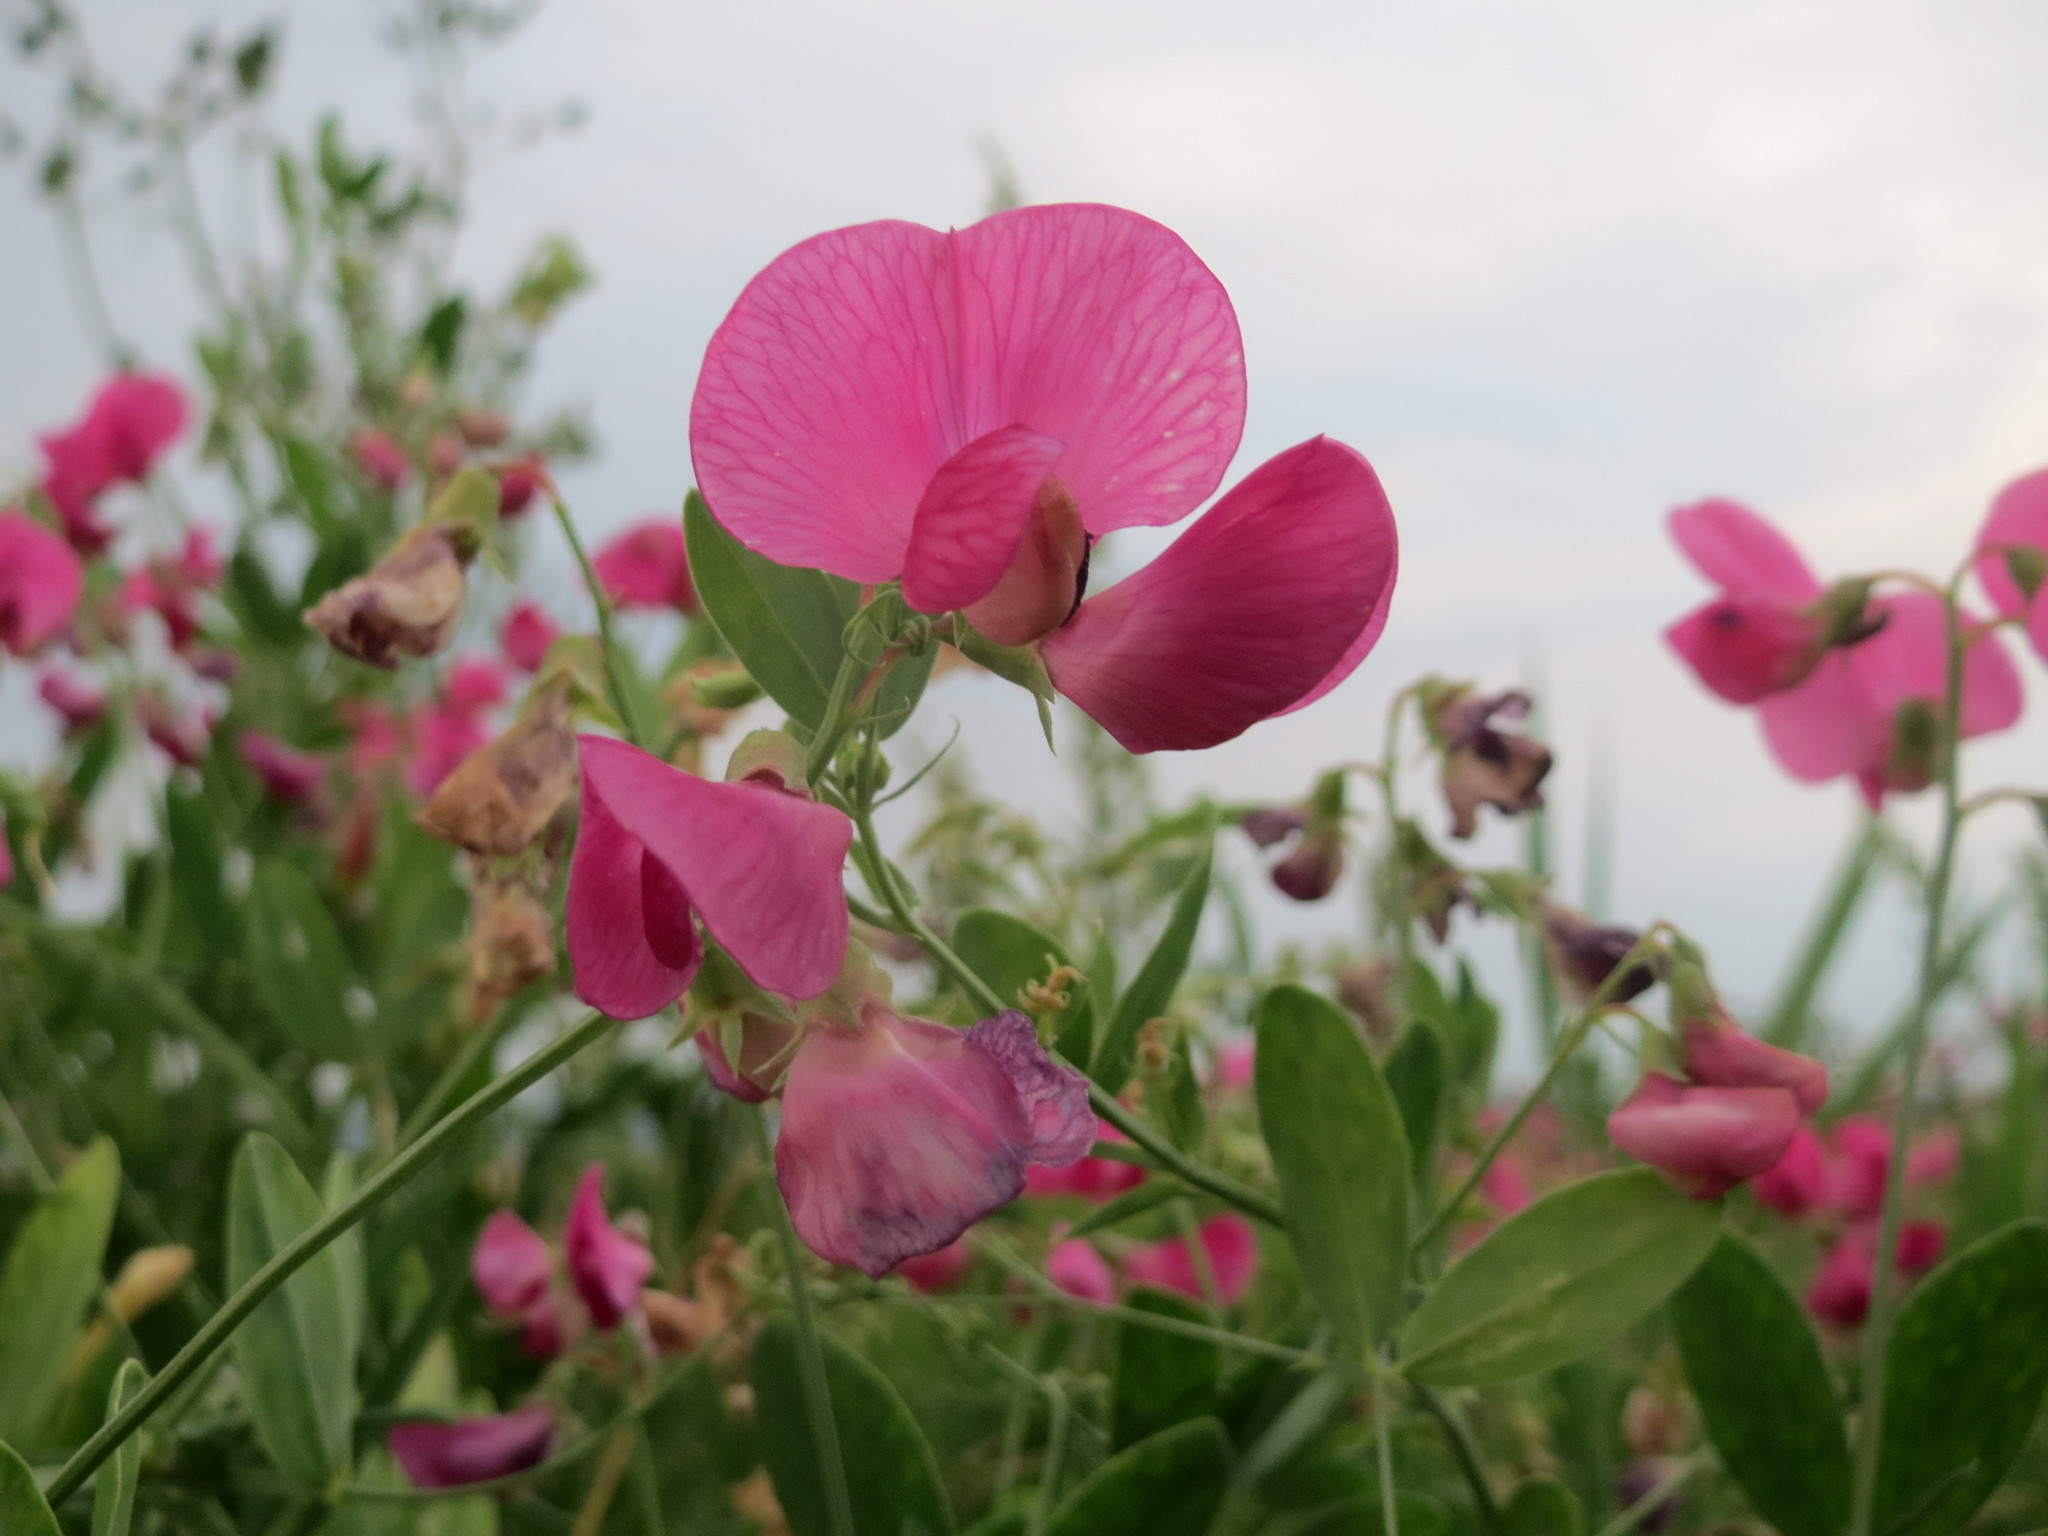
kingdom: Plantae
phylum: Tracheophyta
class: Magnoliopsida
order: Fabales
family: Fabaceae
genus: Lathyrus
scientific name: Lathyrus tuberosus
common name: Tuberous pea
